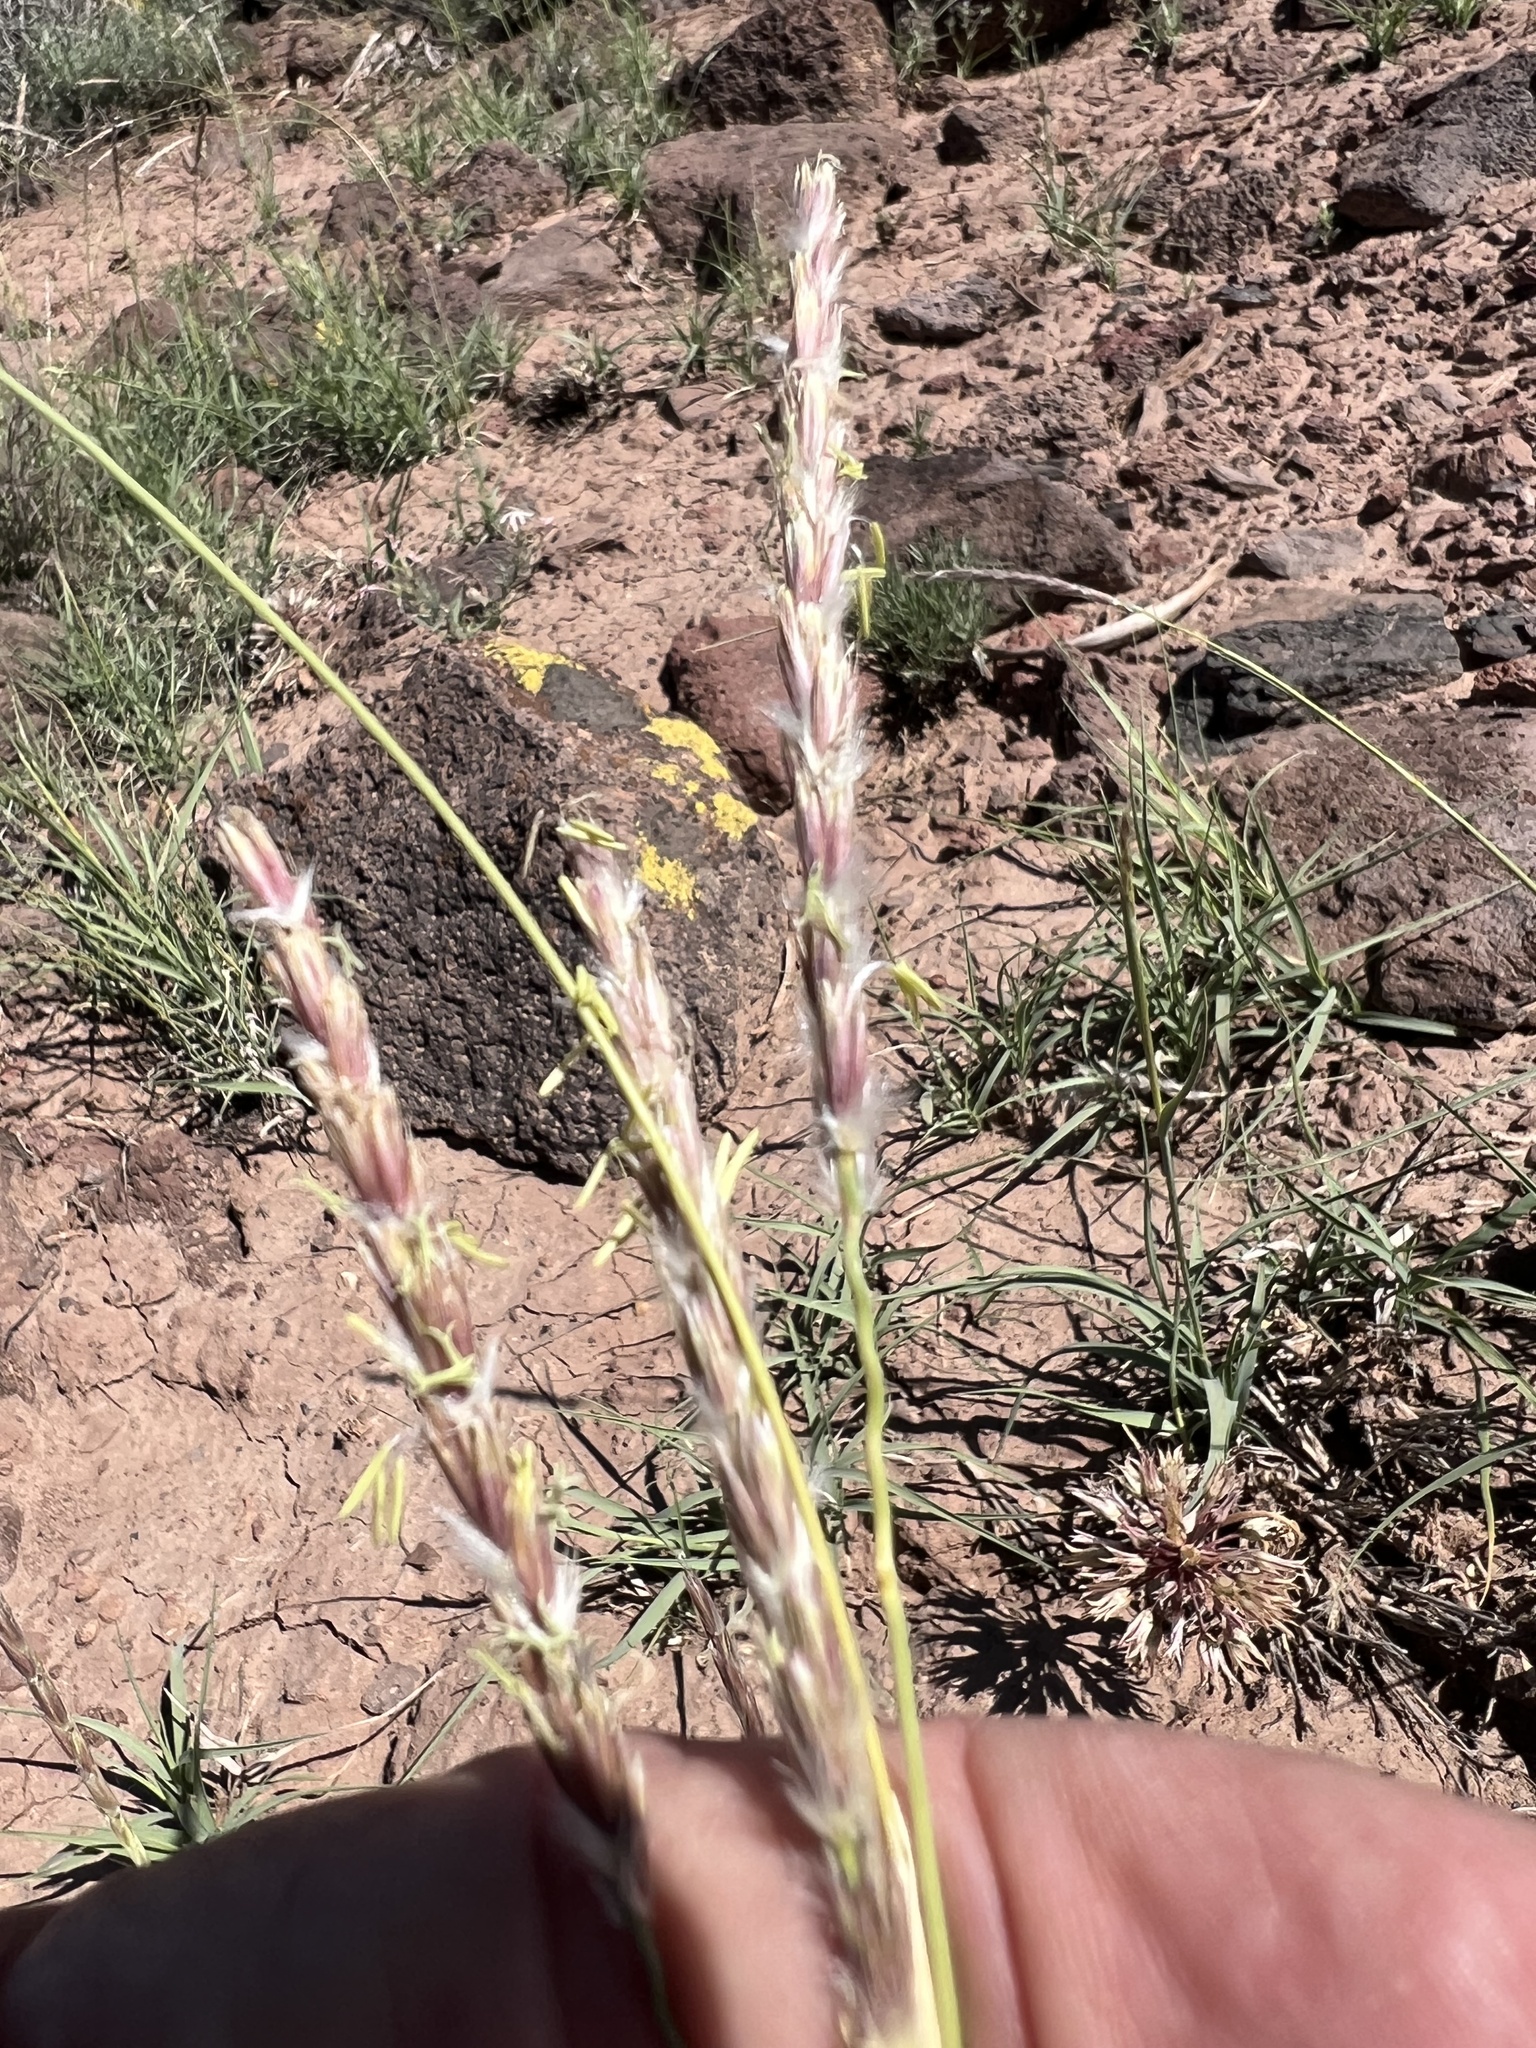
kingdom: Plantae
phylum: Tracheophyta
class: Liliopsida
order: Poales
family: Poaceae
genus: Hilaria
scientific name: Hilaria jamesii
